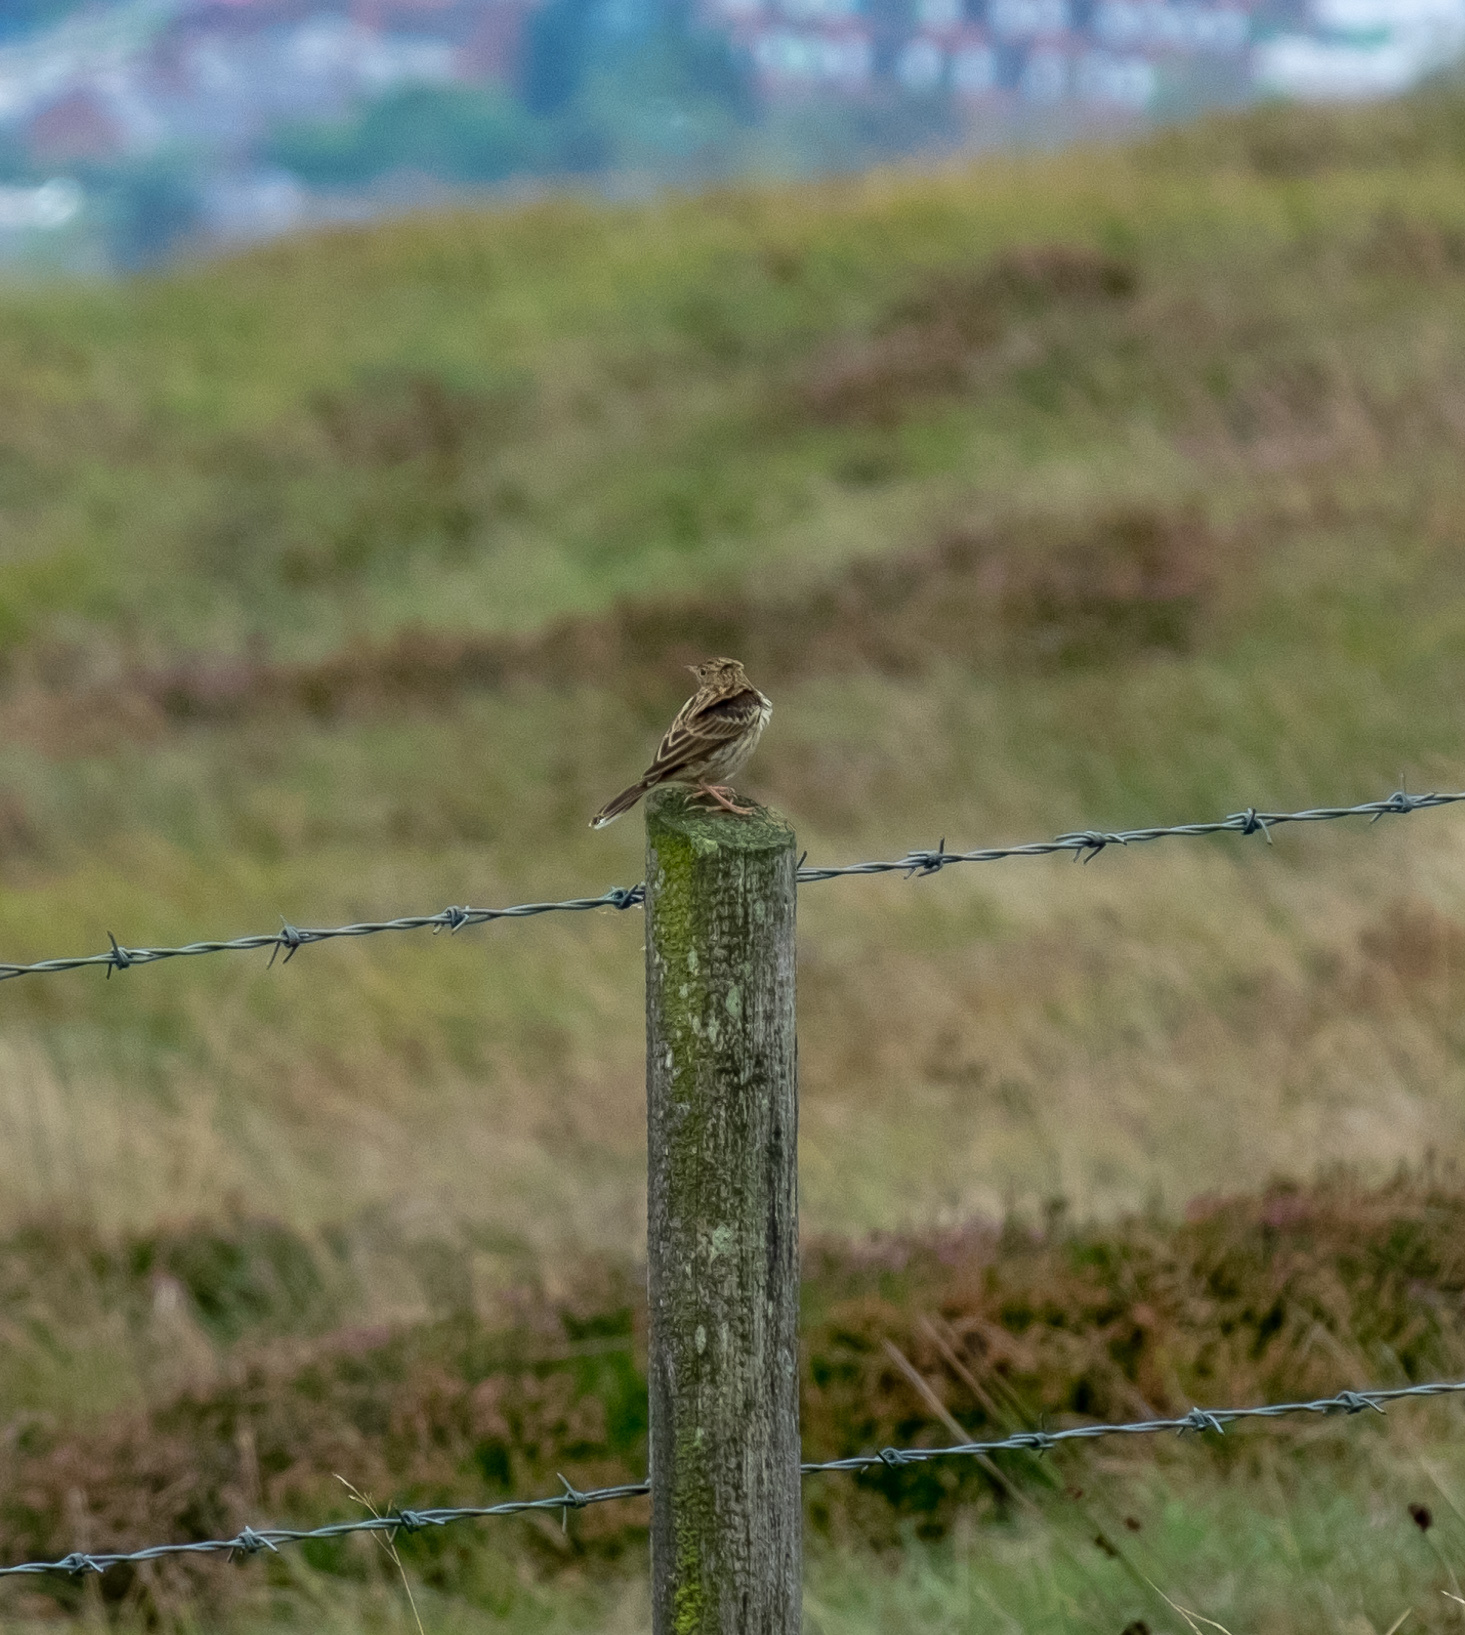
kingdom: Animalia
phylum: Chordata
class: Aves
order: Passeriformes
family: Motacillidae
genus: Anthus
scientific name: Anthus pratensis
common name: Meadow pipit
